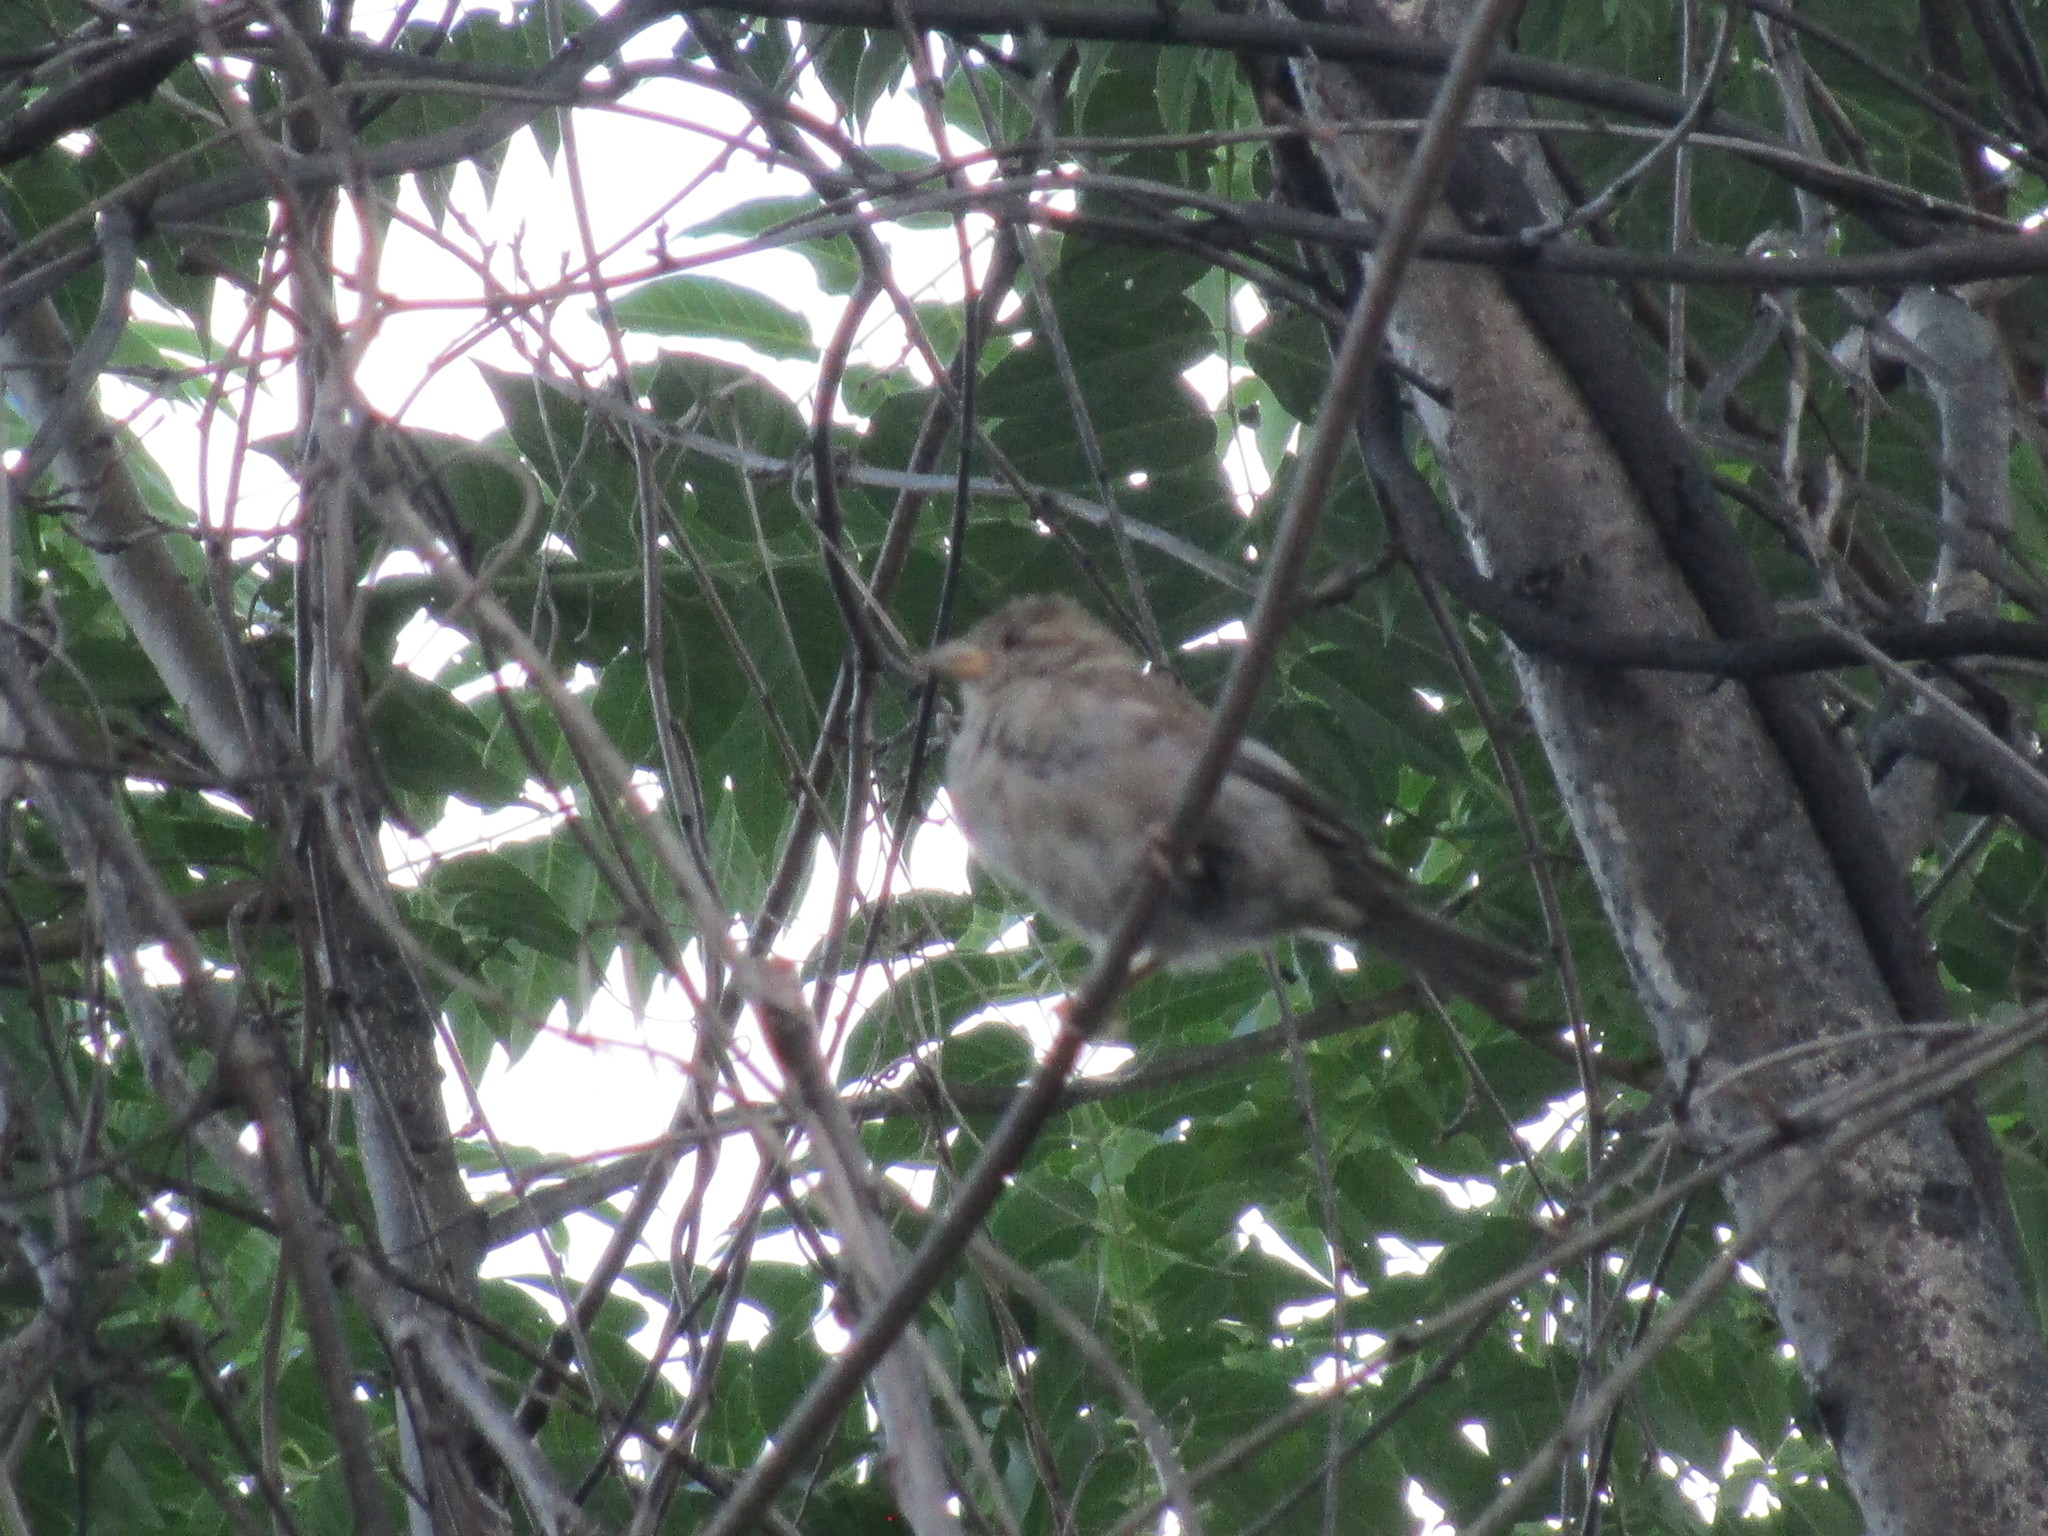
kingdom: Animalia
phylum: Chordata
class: Aves
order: Passeriformes
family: Passeridae
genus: Passer
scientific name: Passer domesticus
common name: House sparrow
